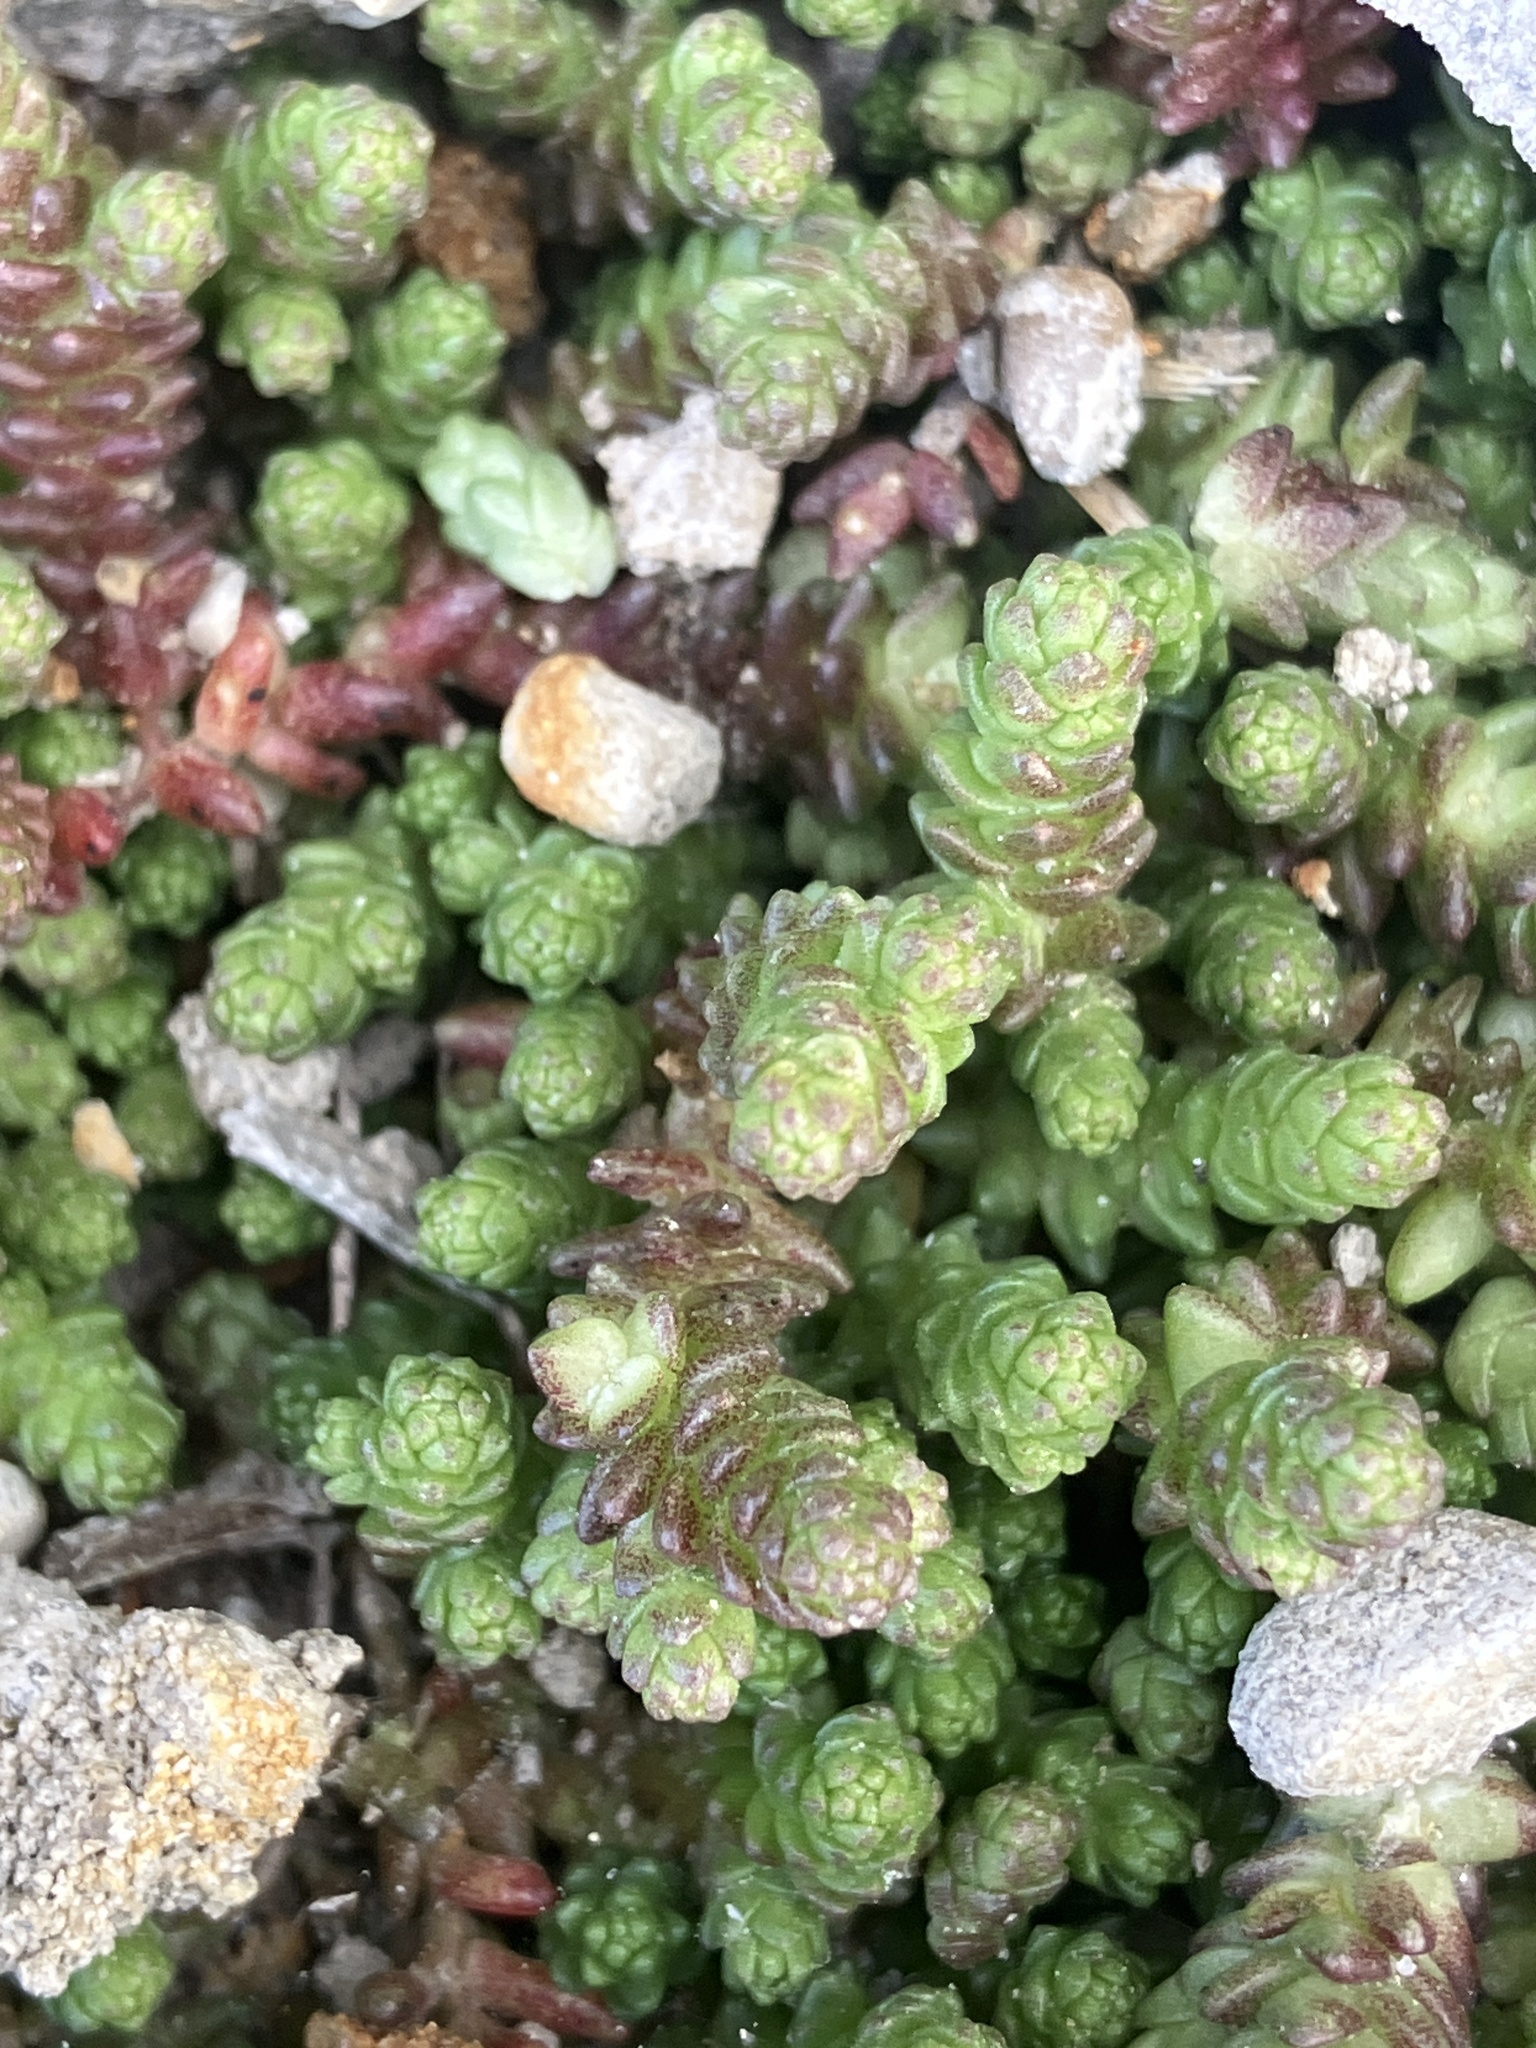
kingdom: Plantae
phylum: Tracheophyta
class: Magnoliopsida
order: Saxifragales
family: Crassulaceae
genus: Sedum
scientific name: Sedum acre
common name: Biting stonecrop
